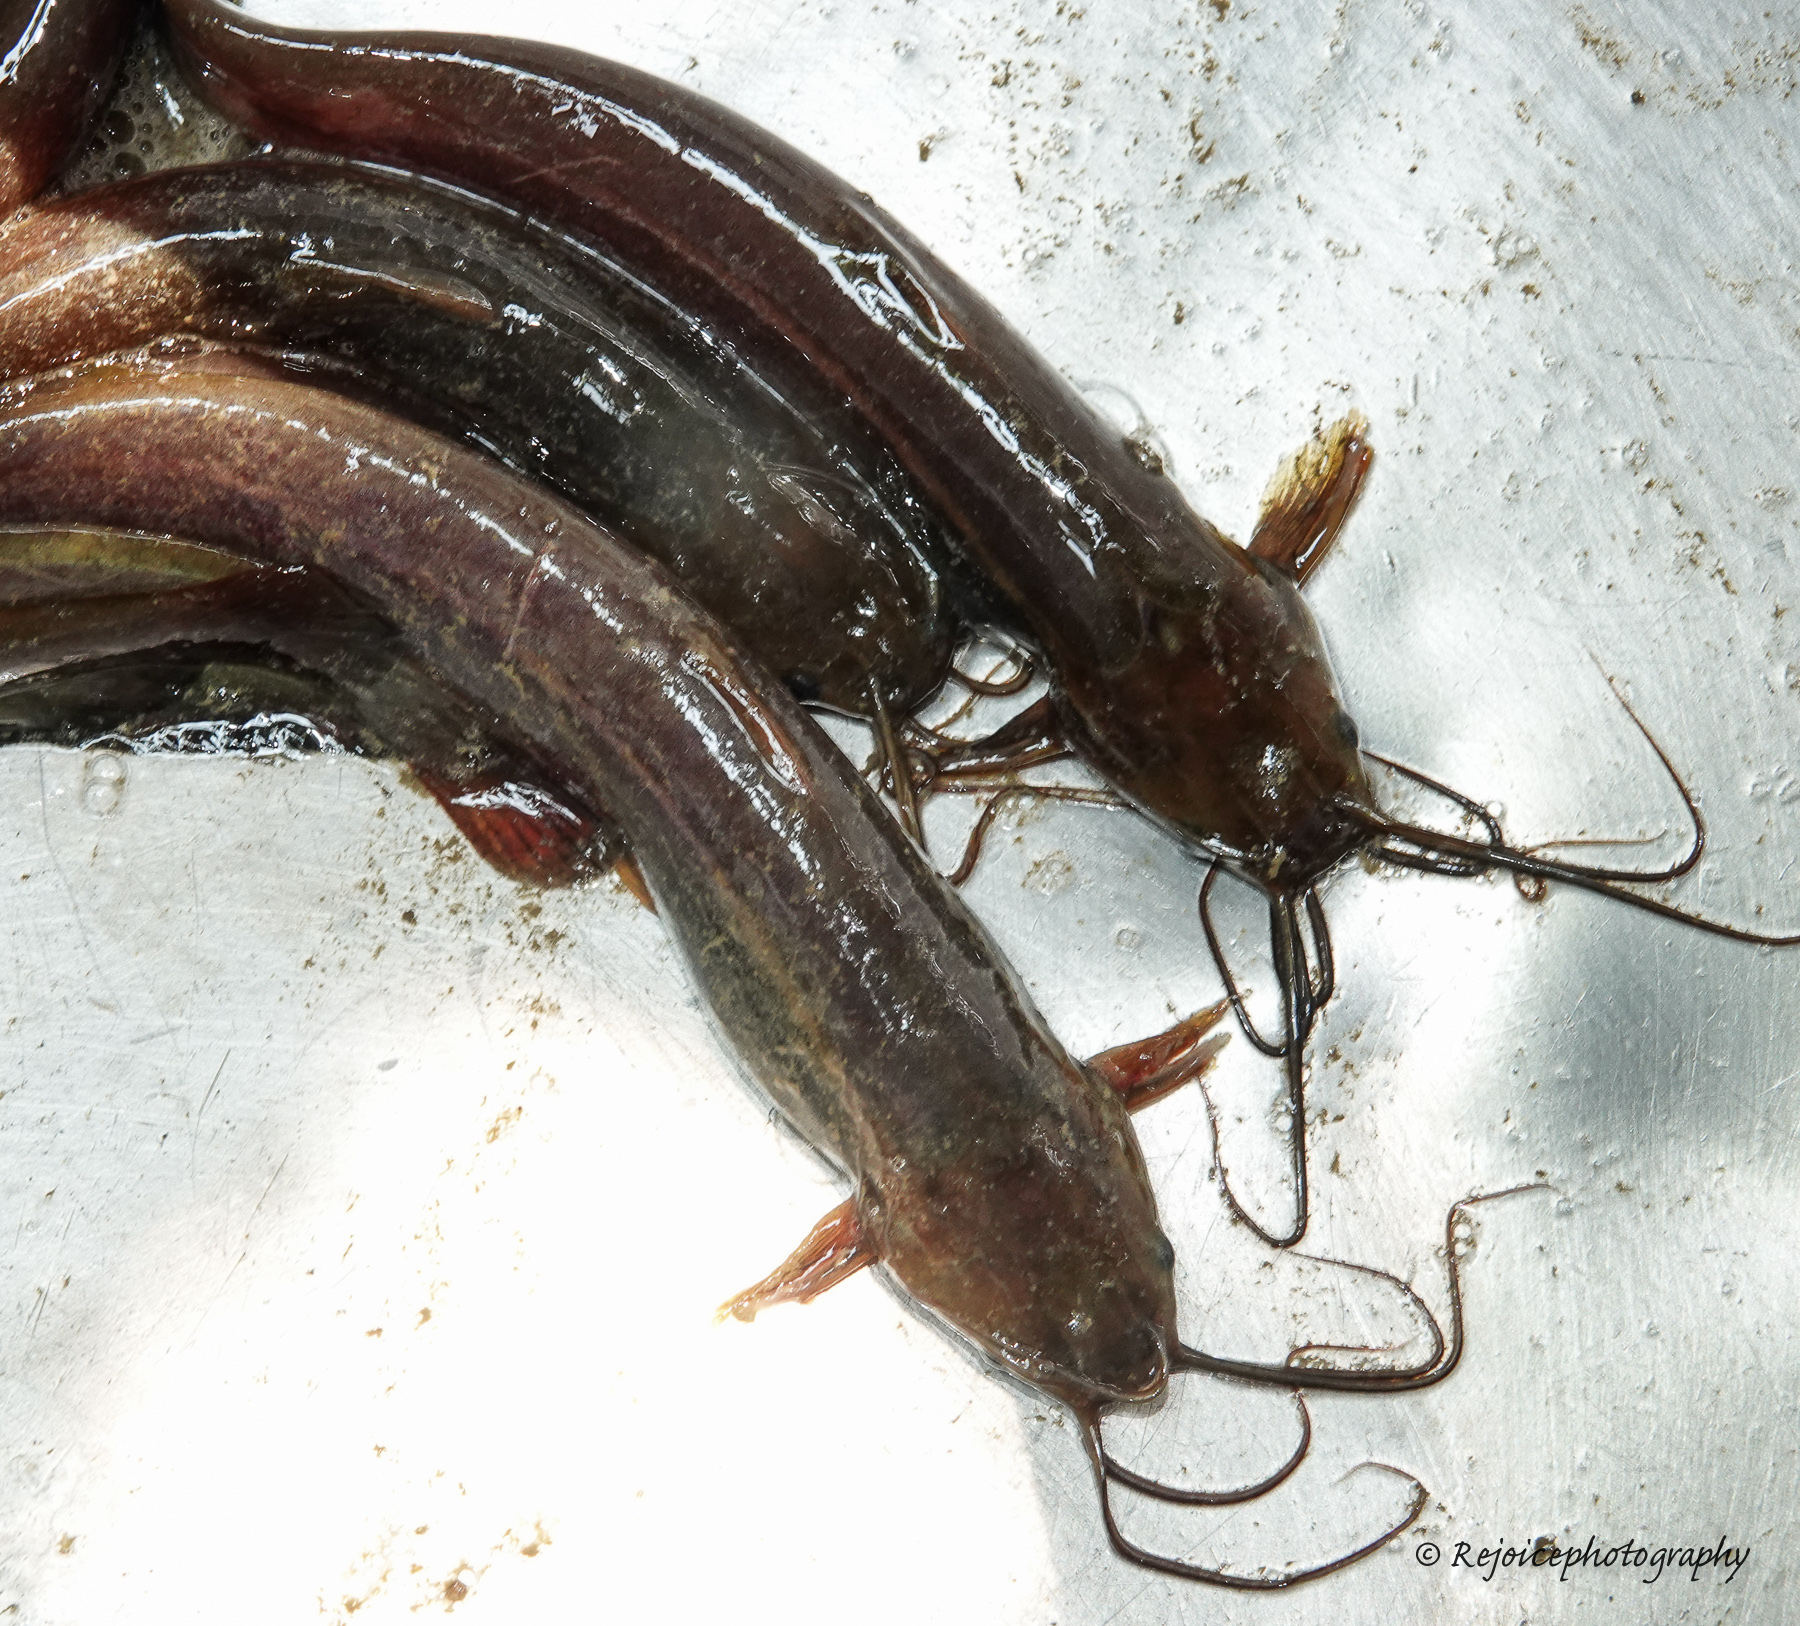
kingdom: Animalia
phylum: Chordata
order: Siluriformes
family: Heteropneustidae
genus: Heteropneustes
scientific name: Heteropneustes fossilis
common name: Stinging catfish
